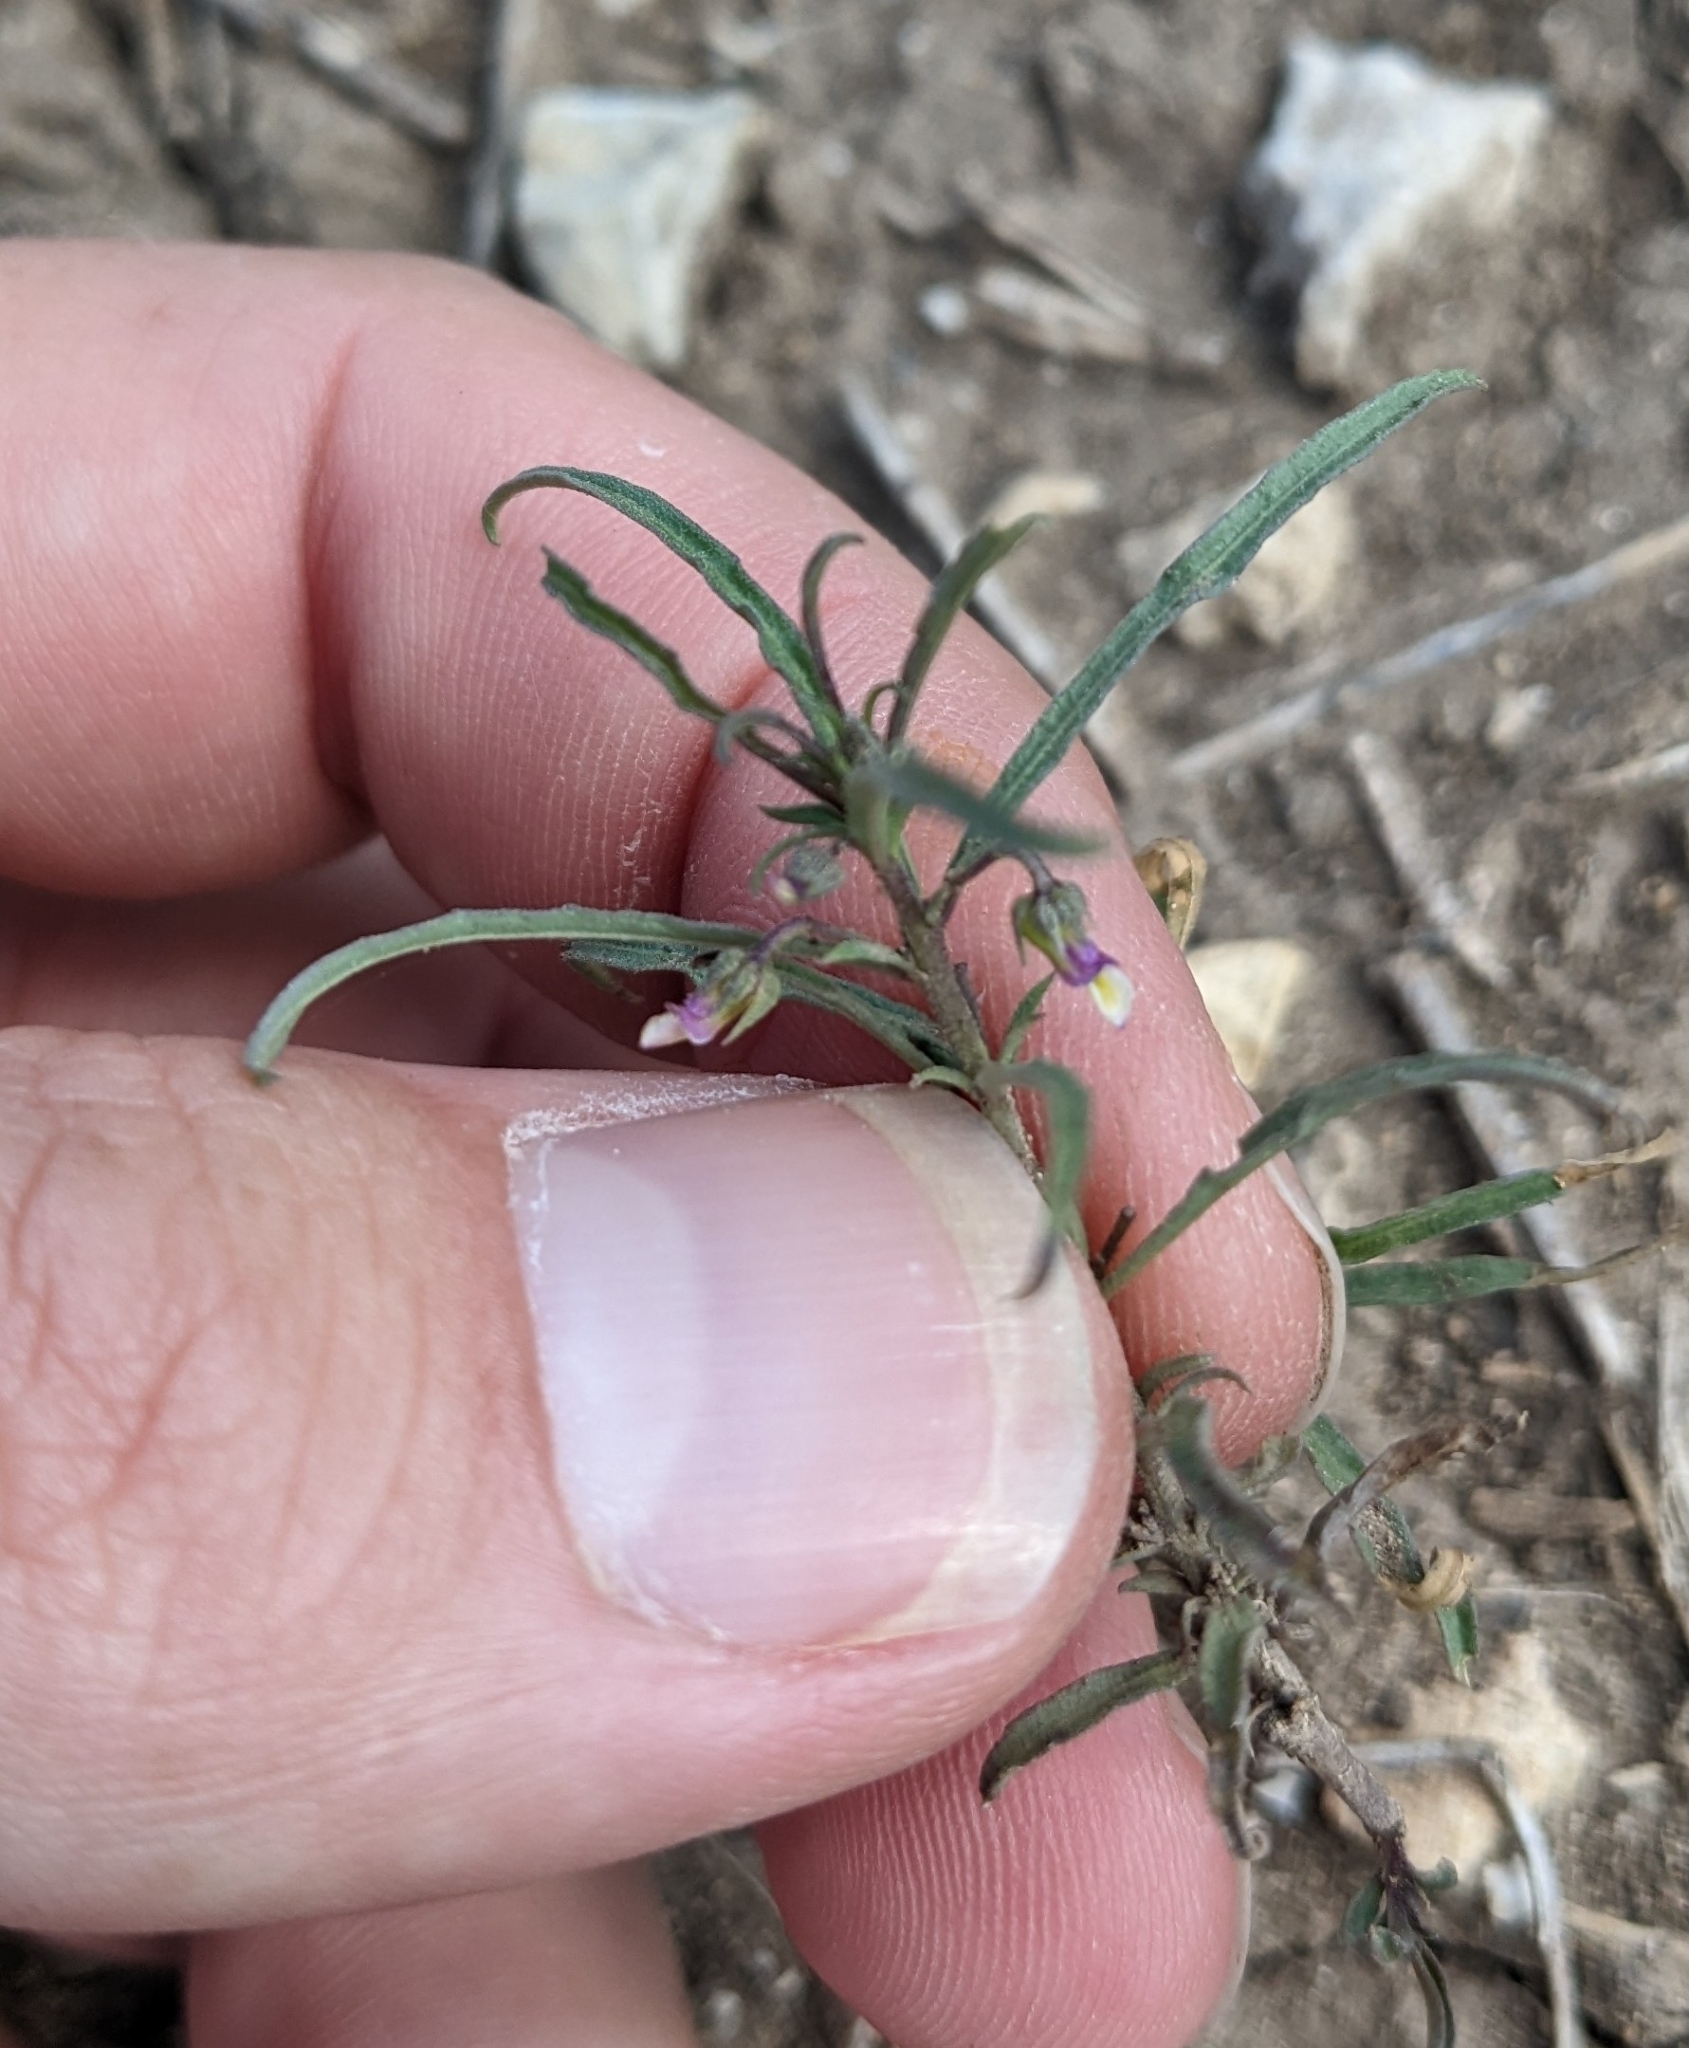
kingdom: Plantae
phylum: Tracheophyta
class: Magnoliopsida
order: Malpighiales
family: Violaceae
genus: Pombalia
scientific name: Pombalia verticillata
